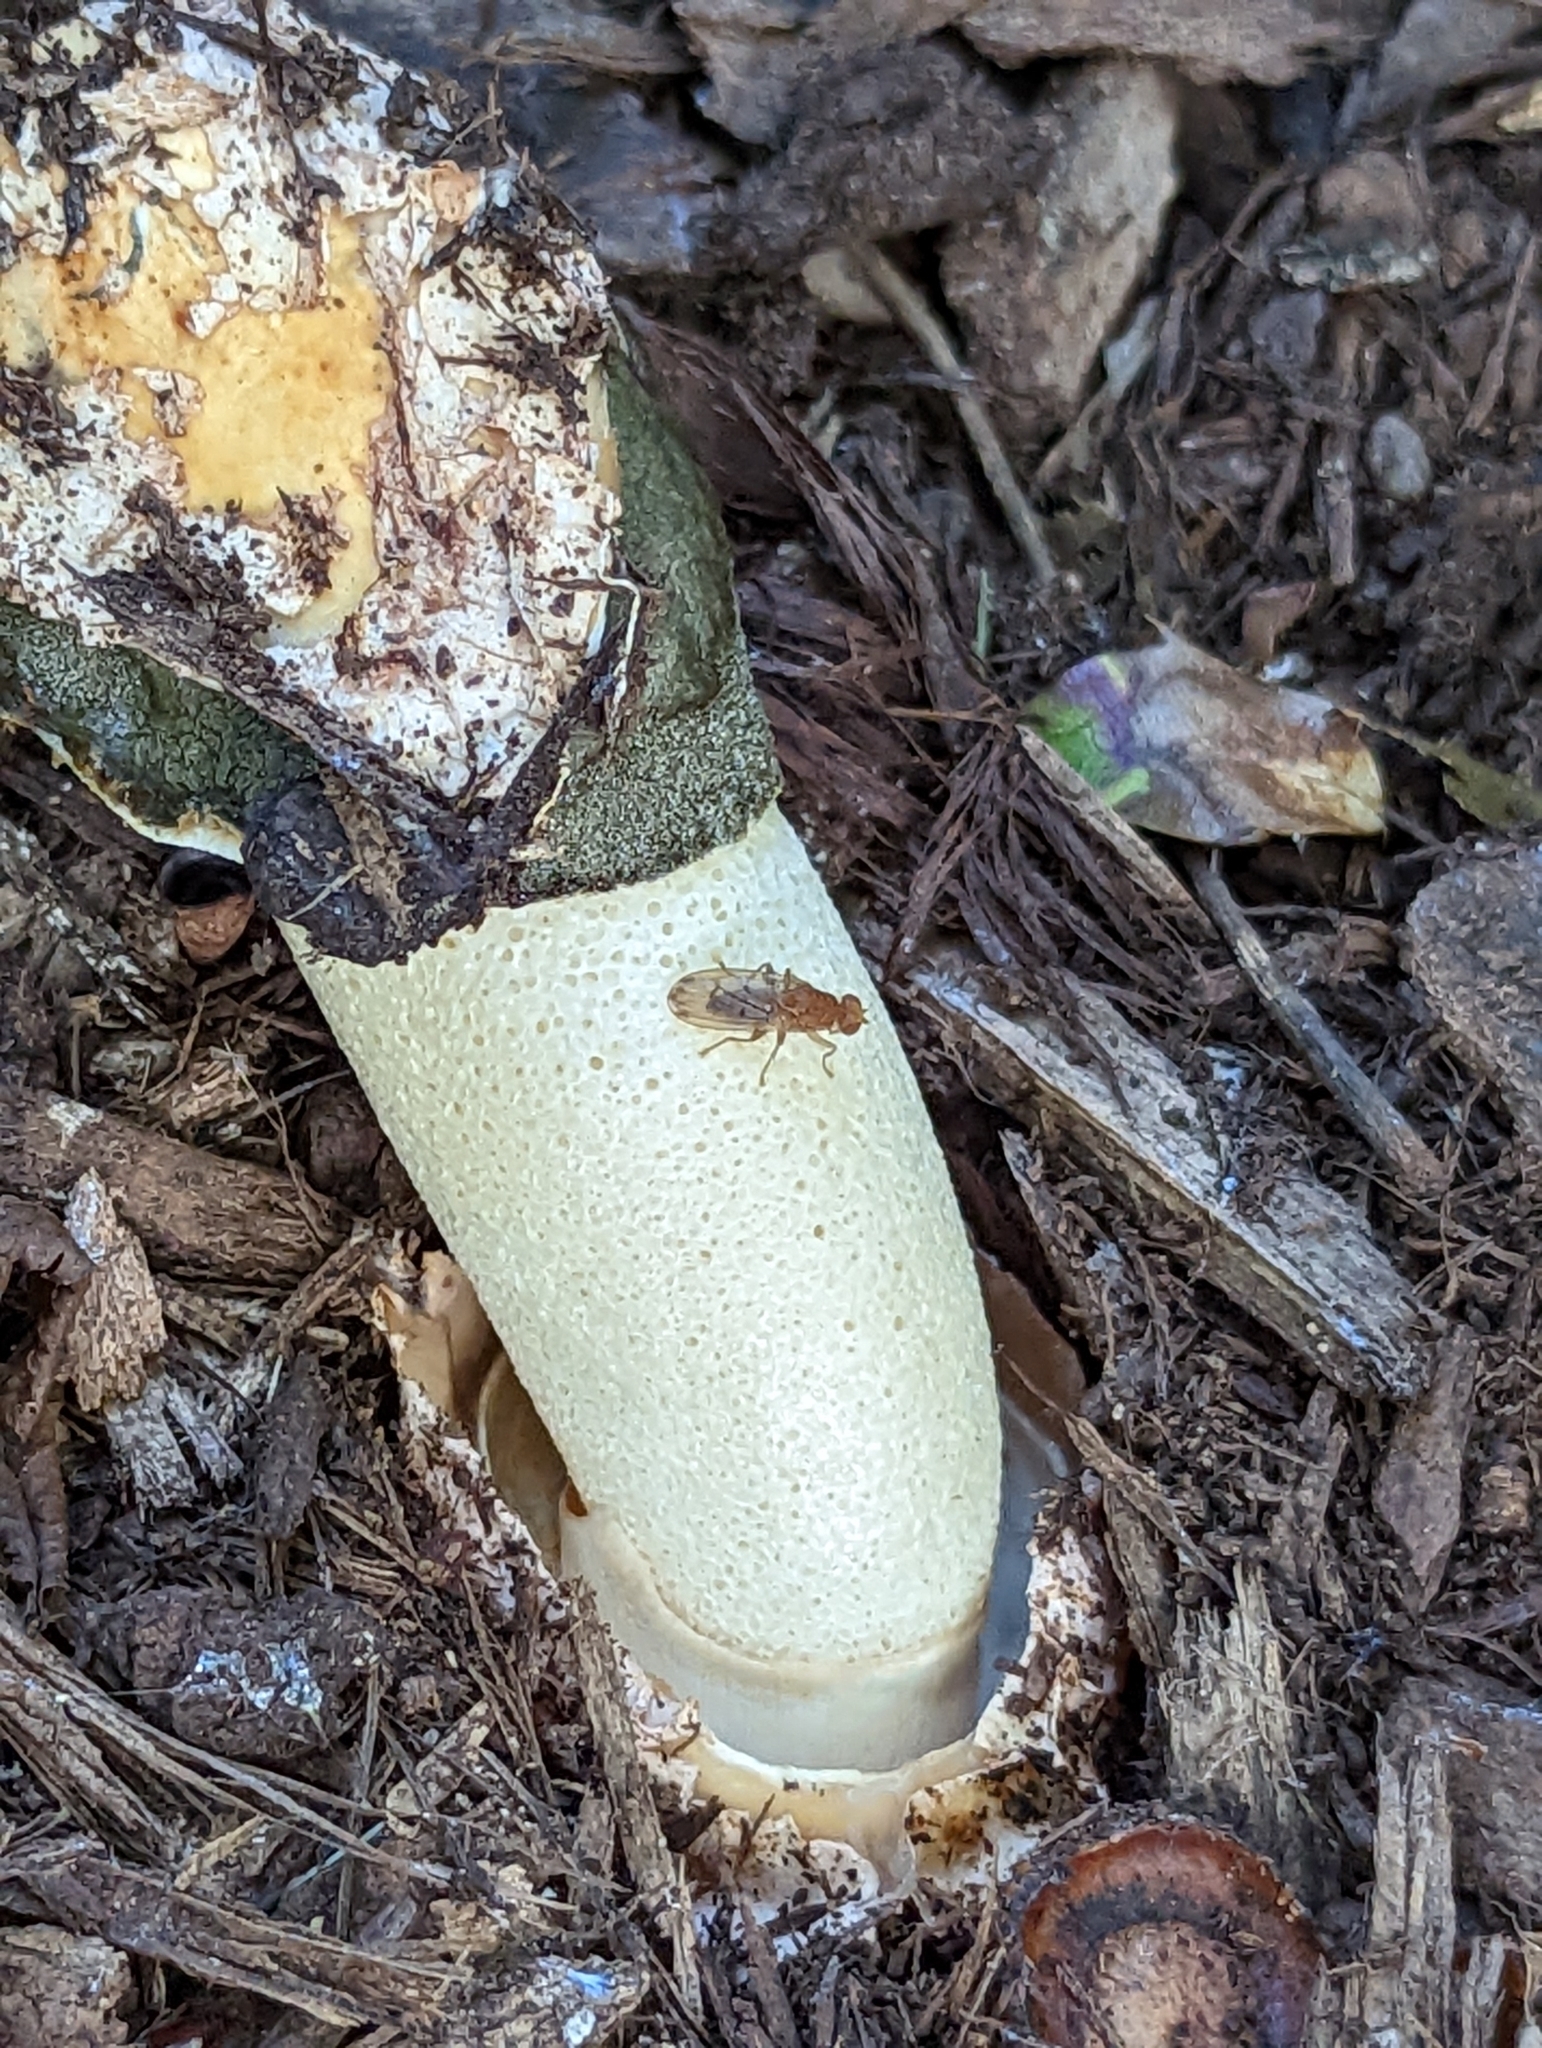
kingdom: Animalia
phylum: Arthropoda
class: Insecta
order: Diptera
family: Heleomyzidae
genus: Suillia
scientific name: Suillia quinquepunctata
